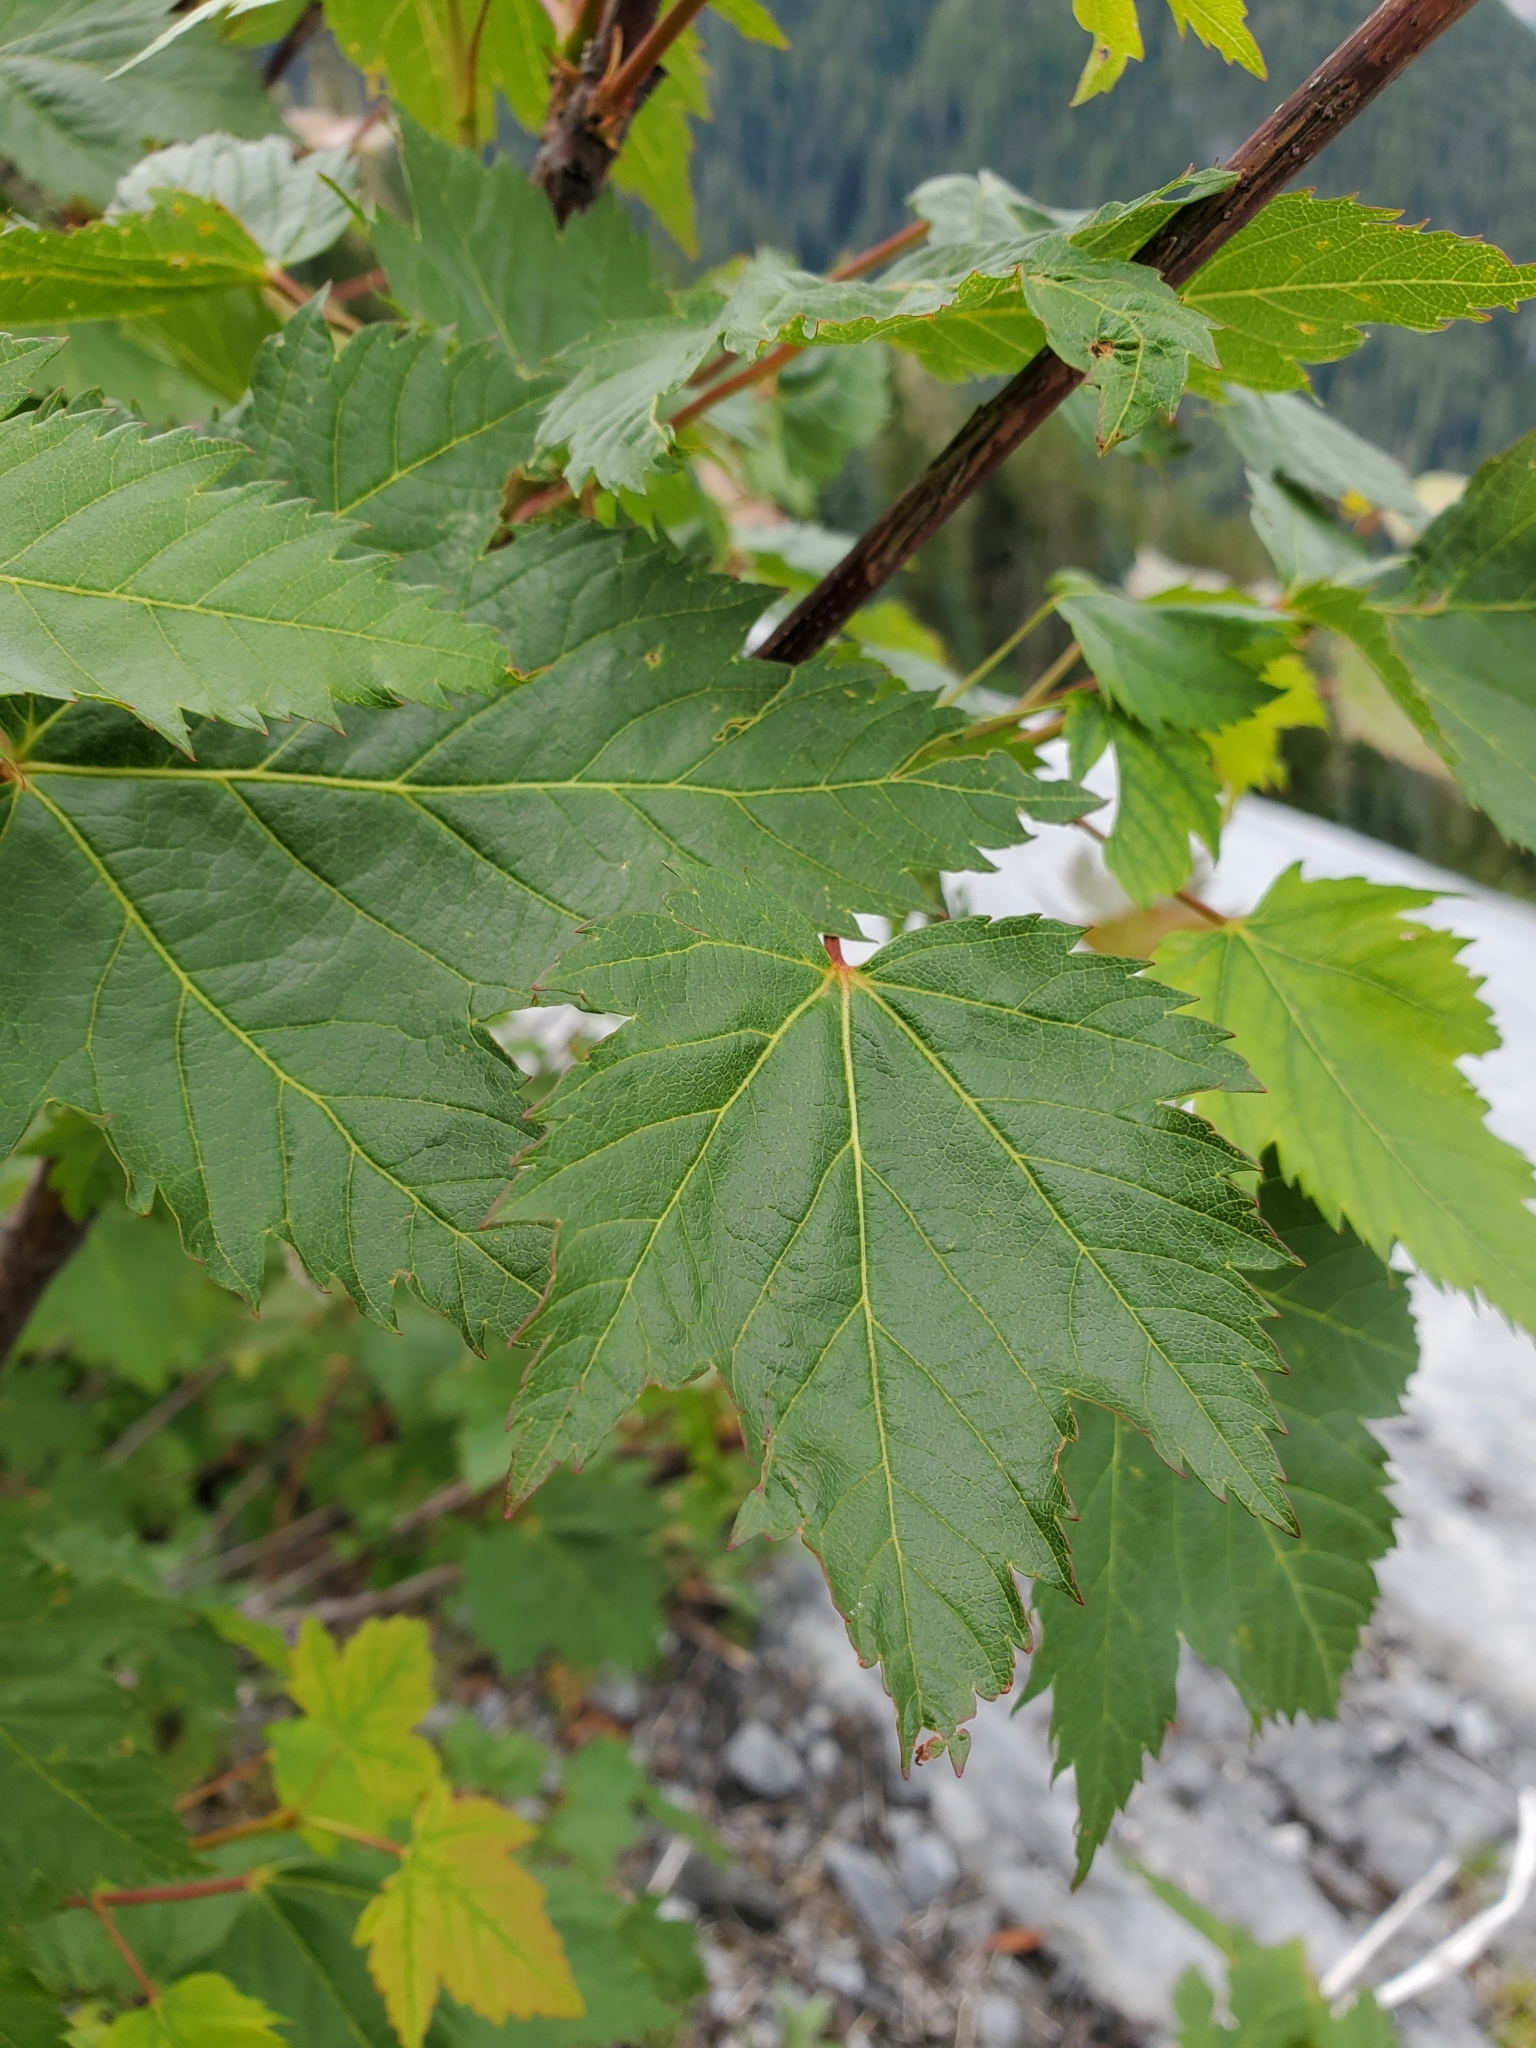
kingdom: Plantae
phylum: Tracheophyta
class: Magnoliopsida
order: Sapindales
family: Sapindaceae
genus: Acer
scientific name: Acer glabrum
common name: Rocky mountain maple
